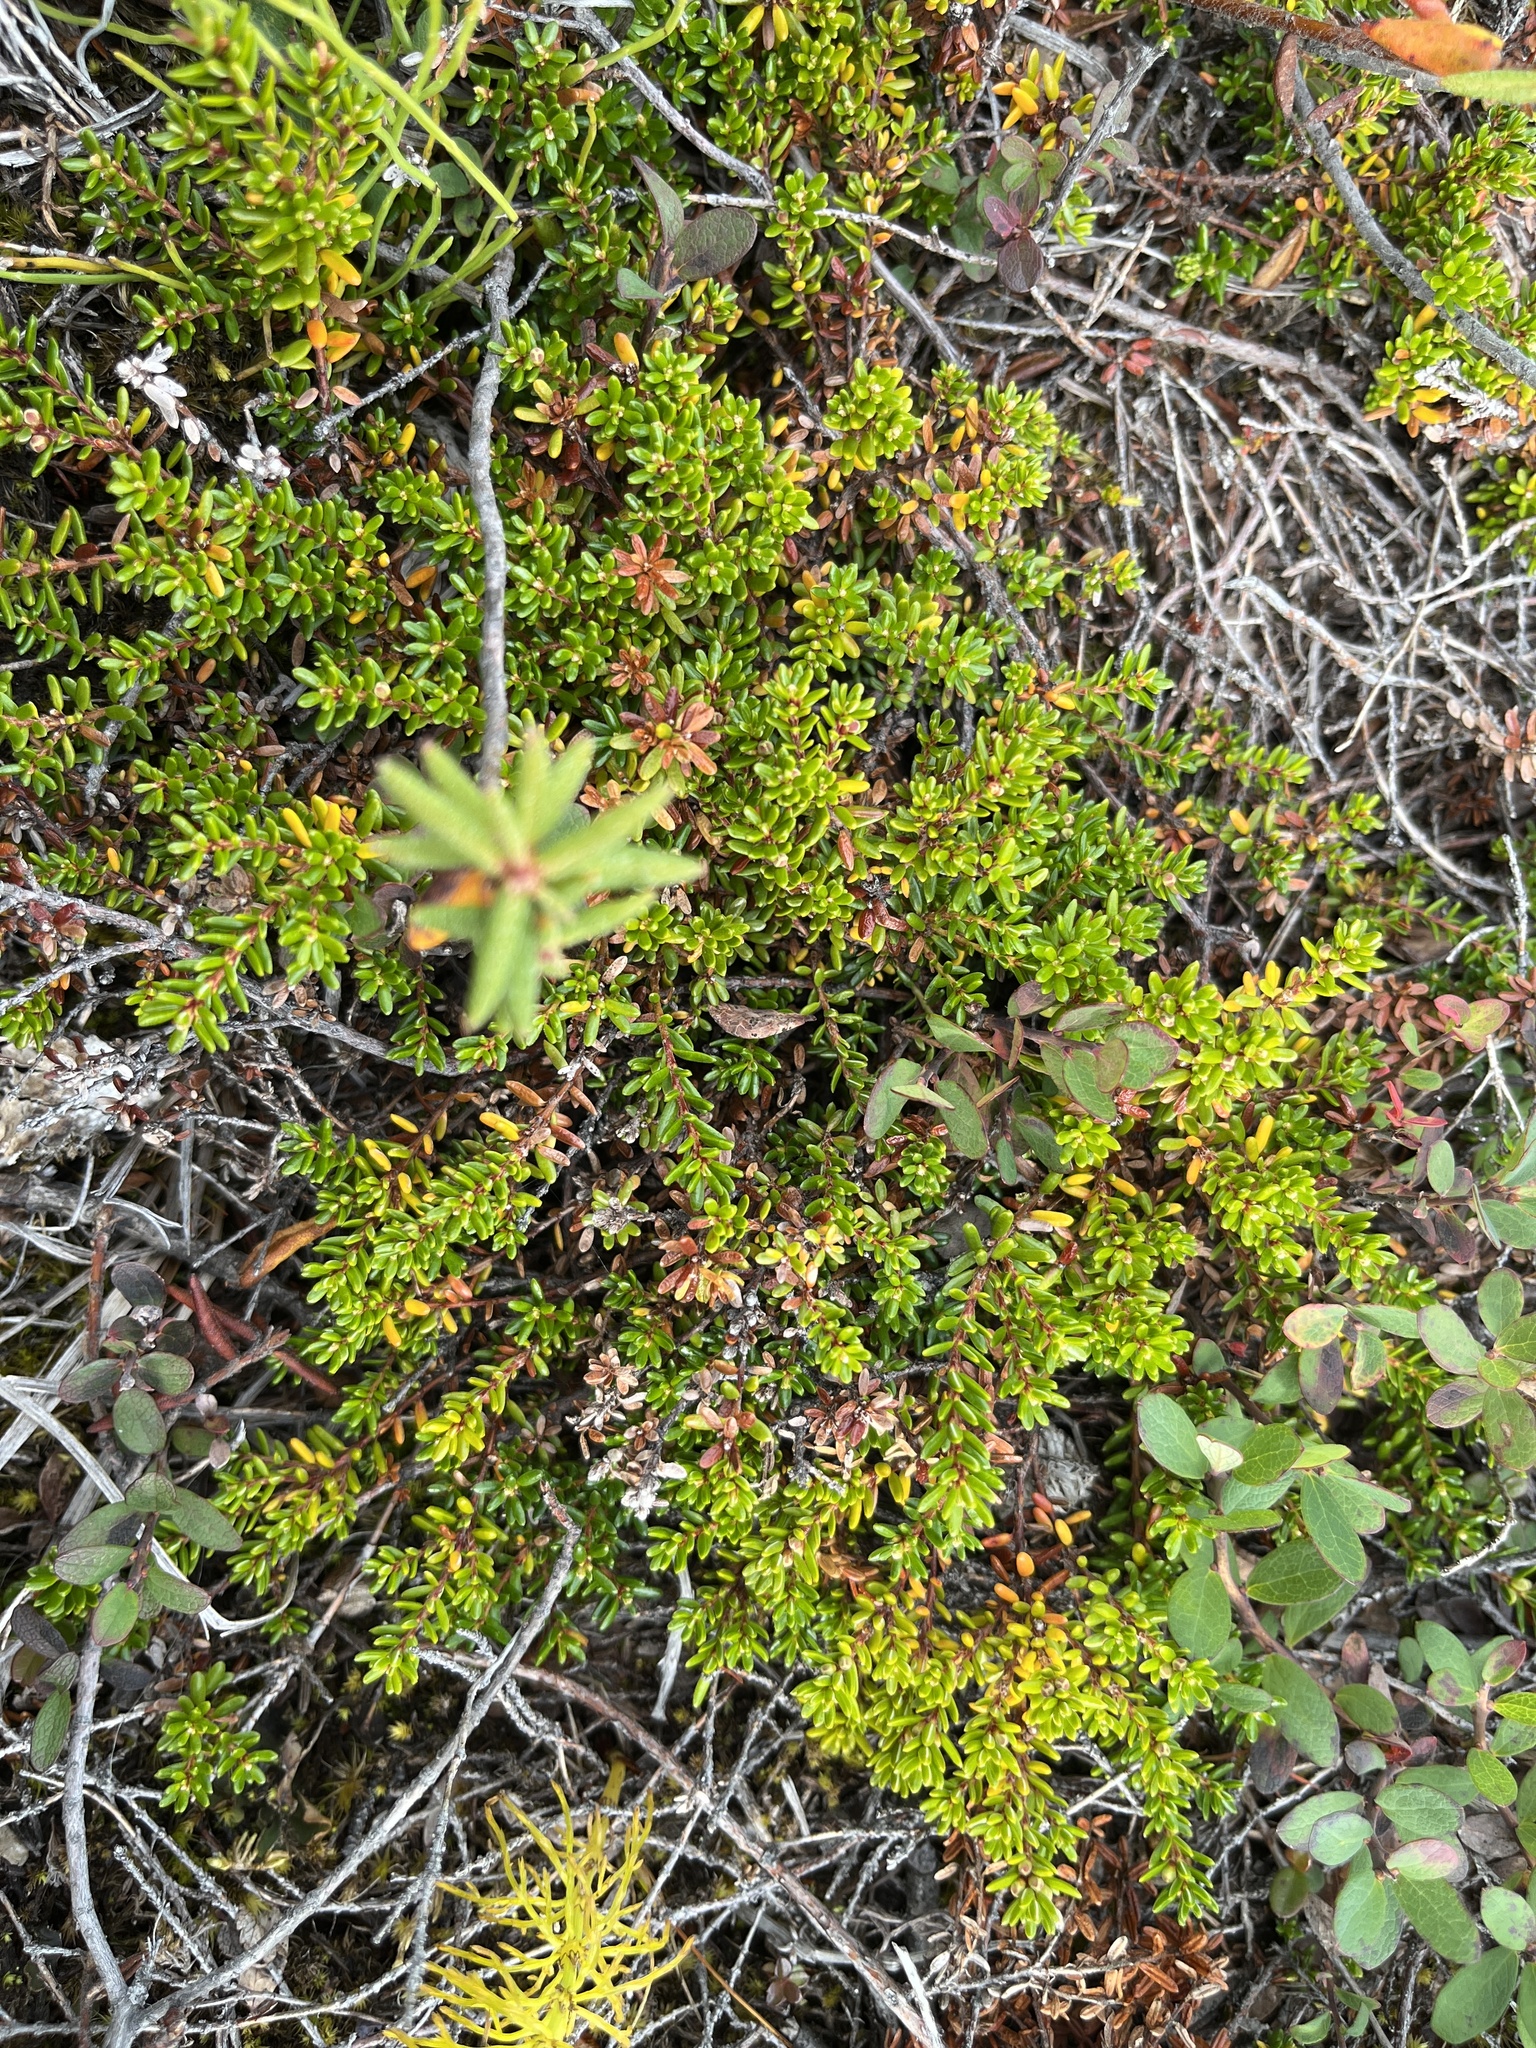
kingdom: Plantae
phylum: Tracheophyta
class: Magnoliopsida
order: Ericales
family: Ericaceae
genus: Empetrum
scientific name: Empetrum hermaphroditum
